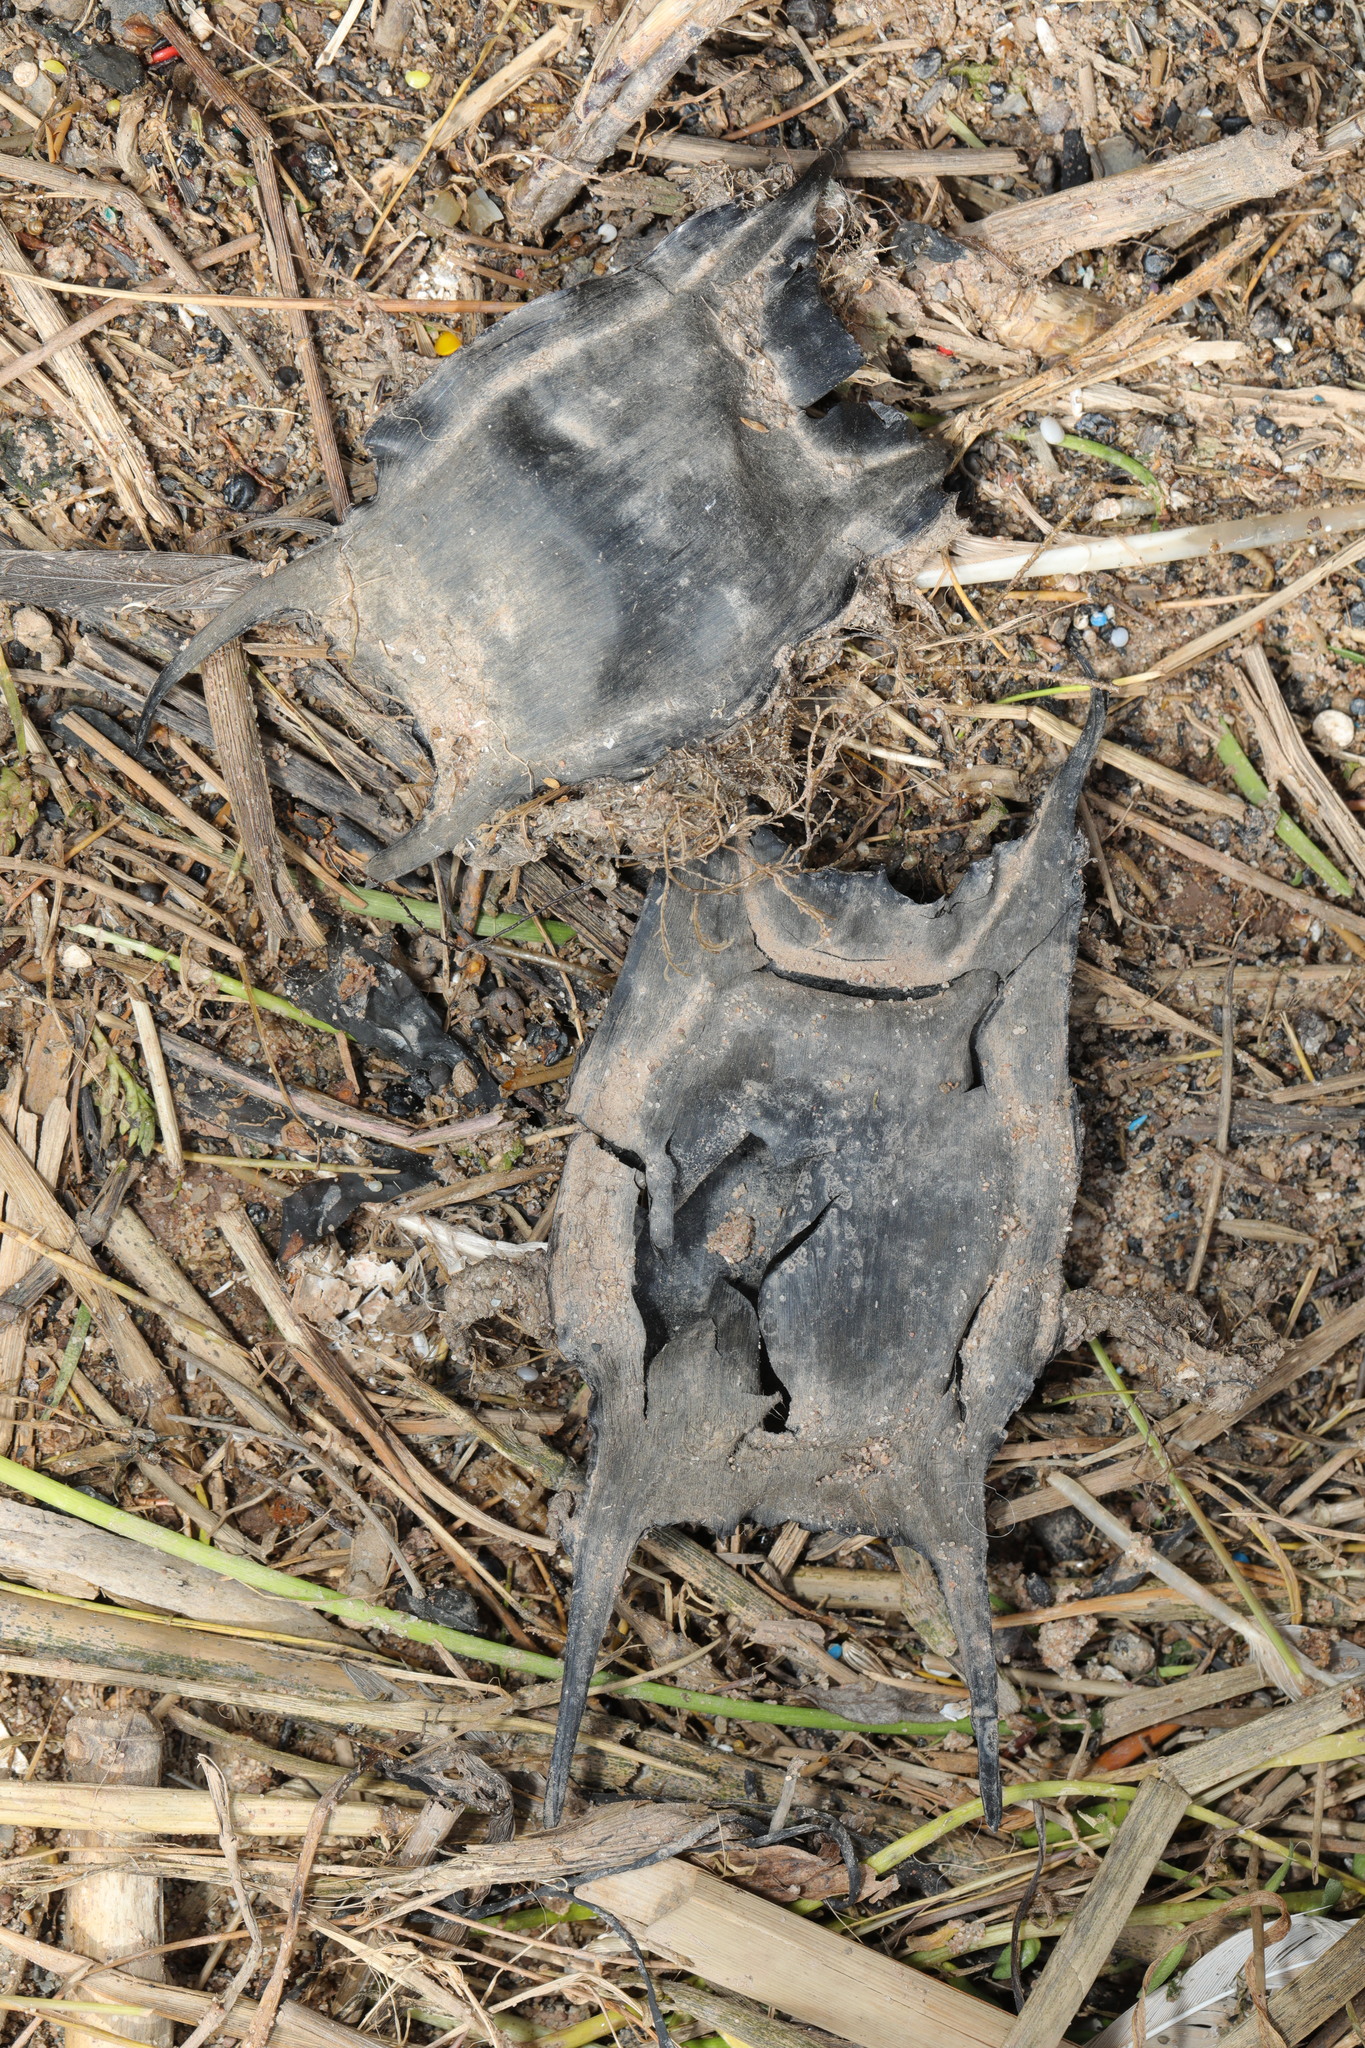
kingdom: Animalia
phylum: Chordata
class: Elasmobranchii
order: Rajiformes
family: Rajidae
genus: Raja
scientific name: Raja clavata
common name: Thornback ray
